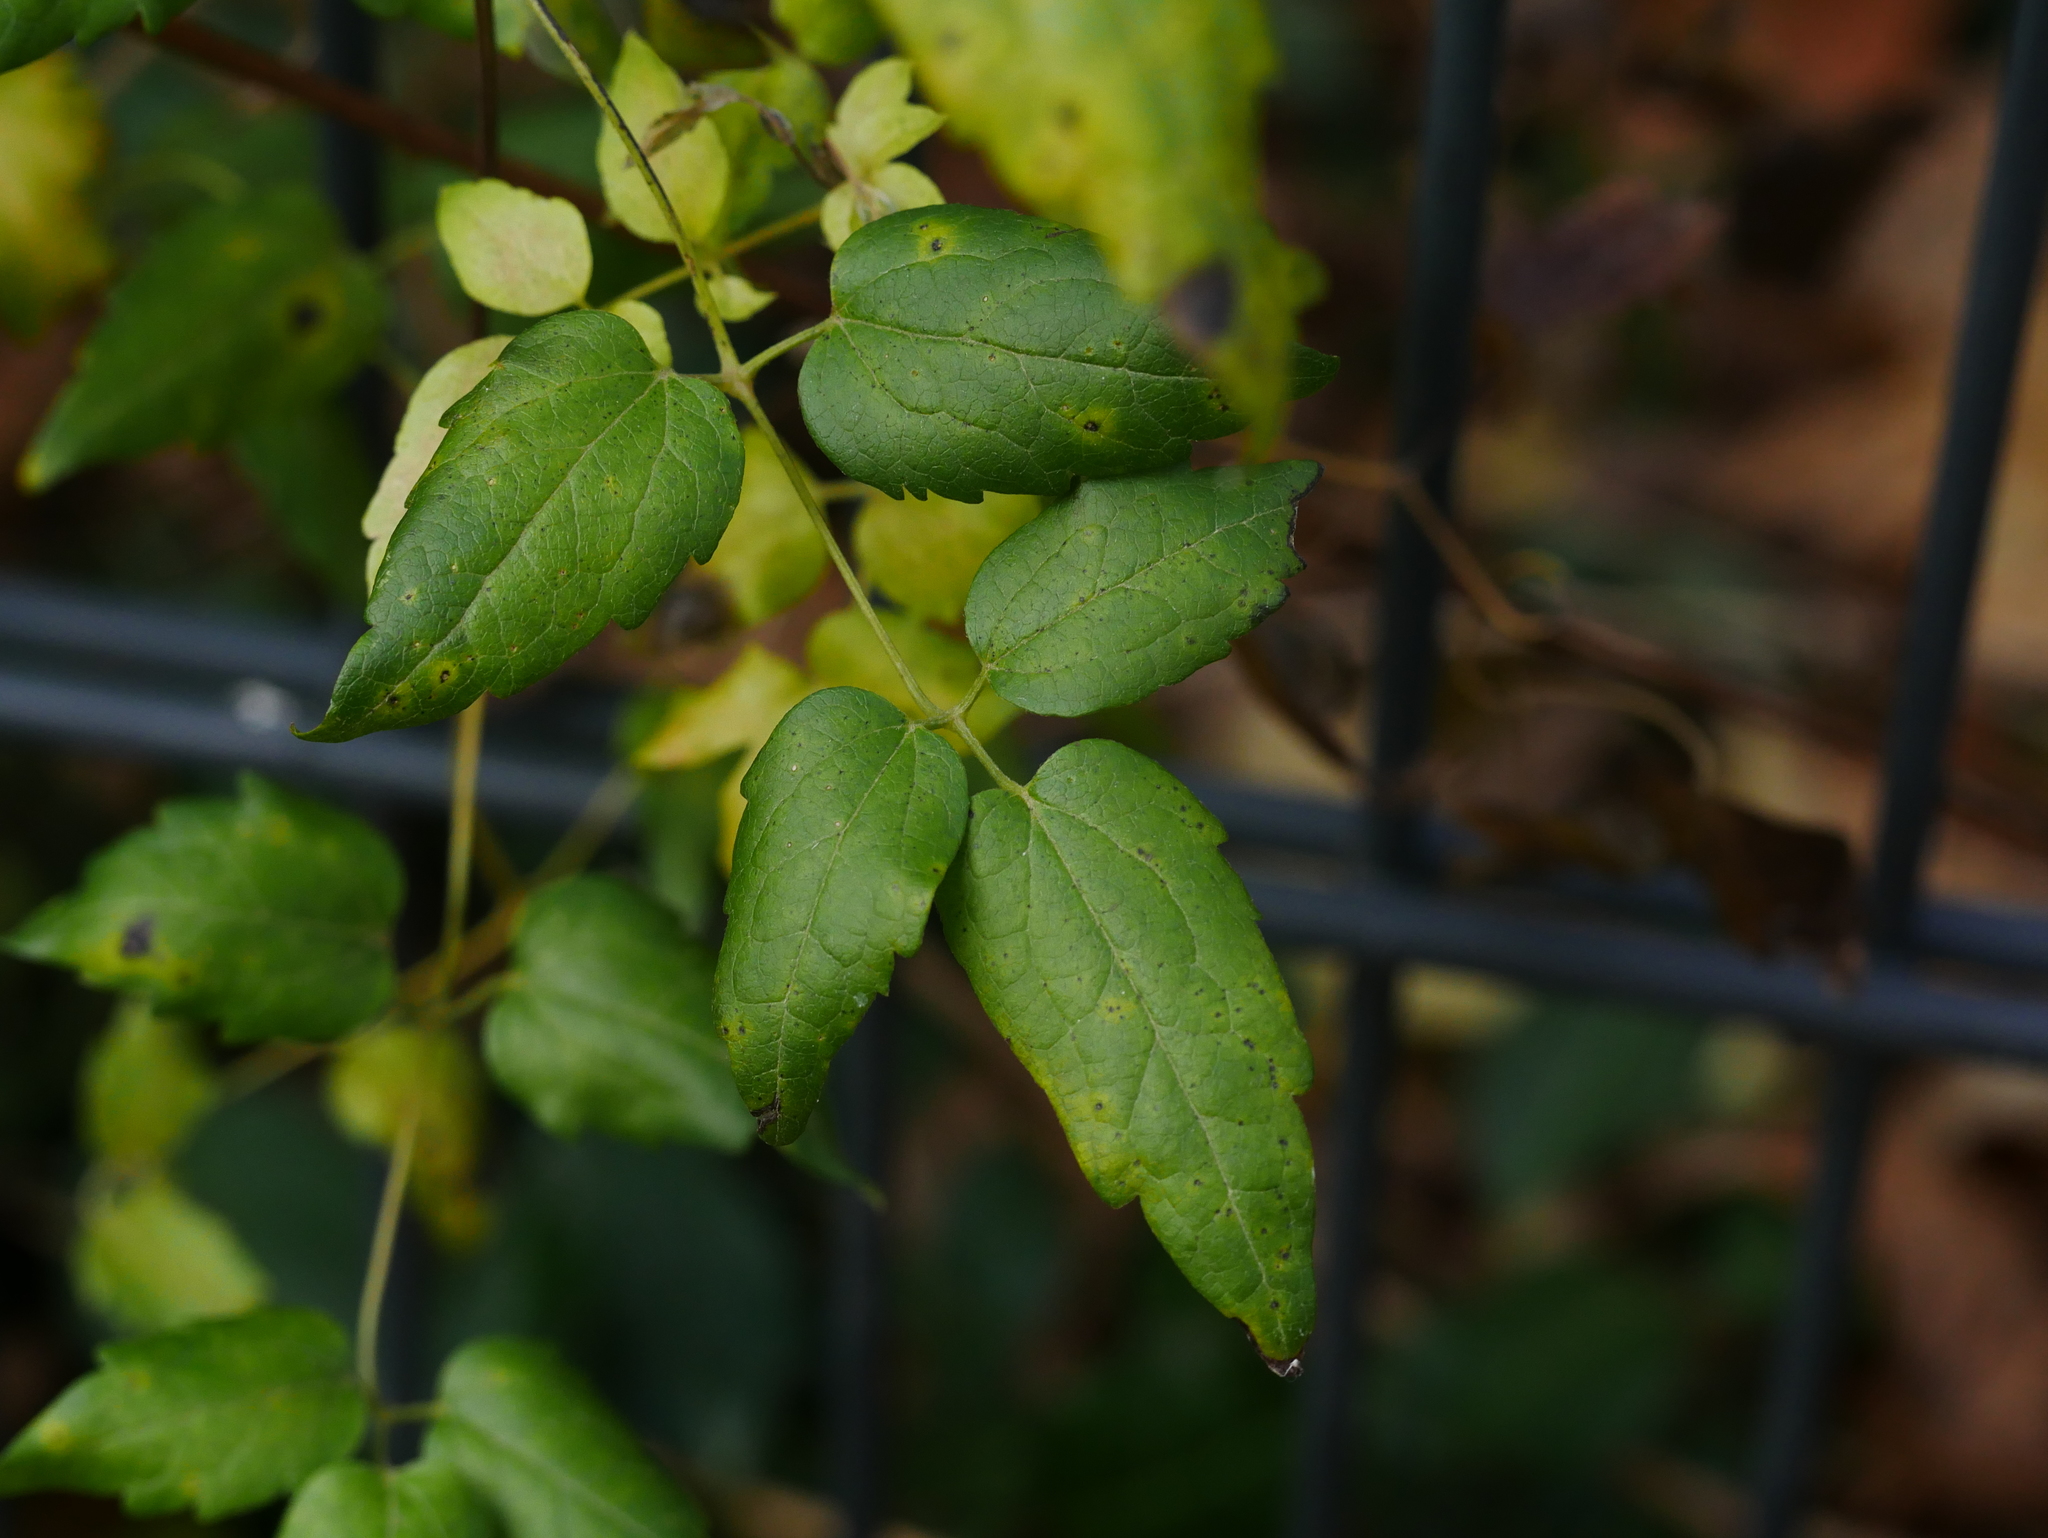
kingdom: Plantae
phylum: Tracheophyta
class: Magnoliopsida
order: Ranunculales
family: Ranunculaceae
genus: Clematis
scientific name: Clematis vitalba
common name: Evergreen clematis
